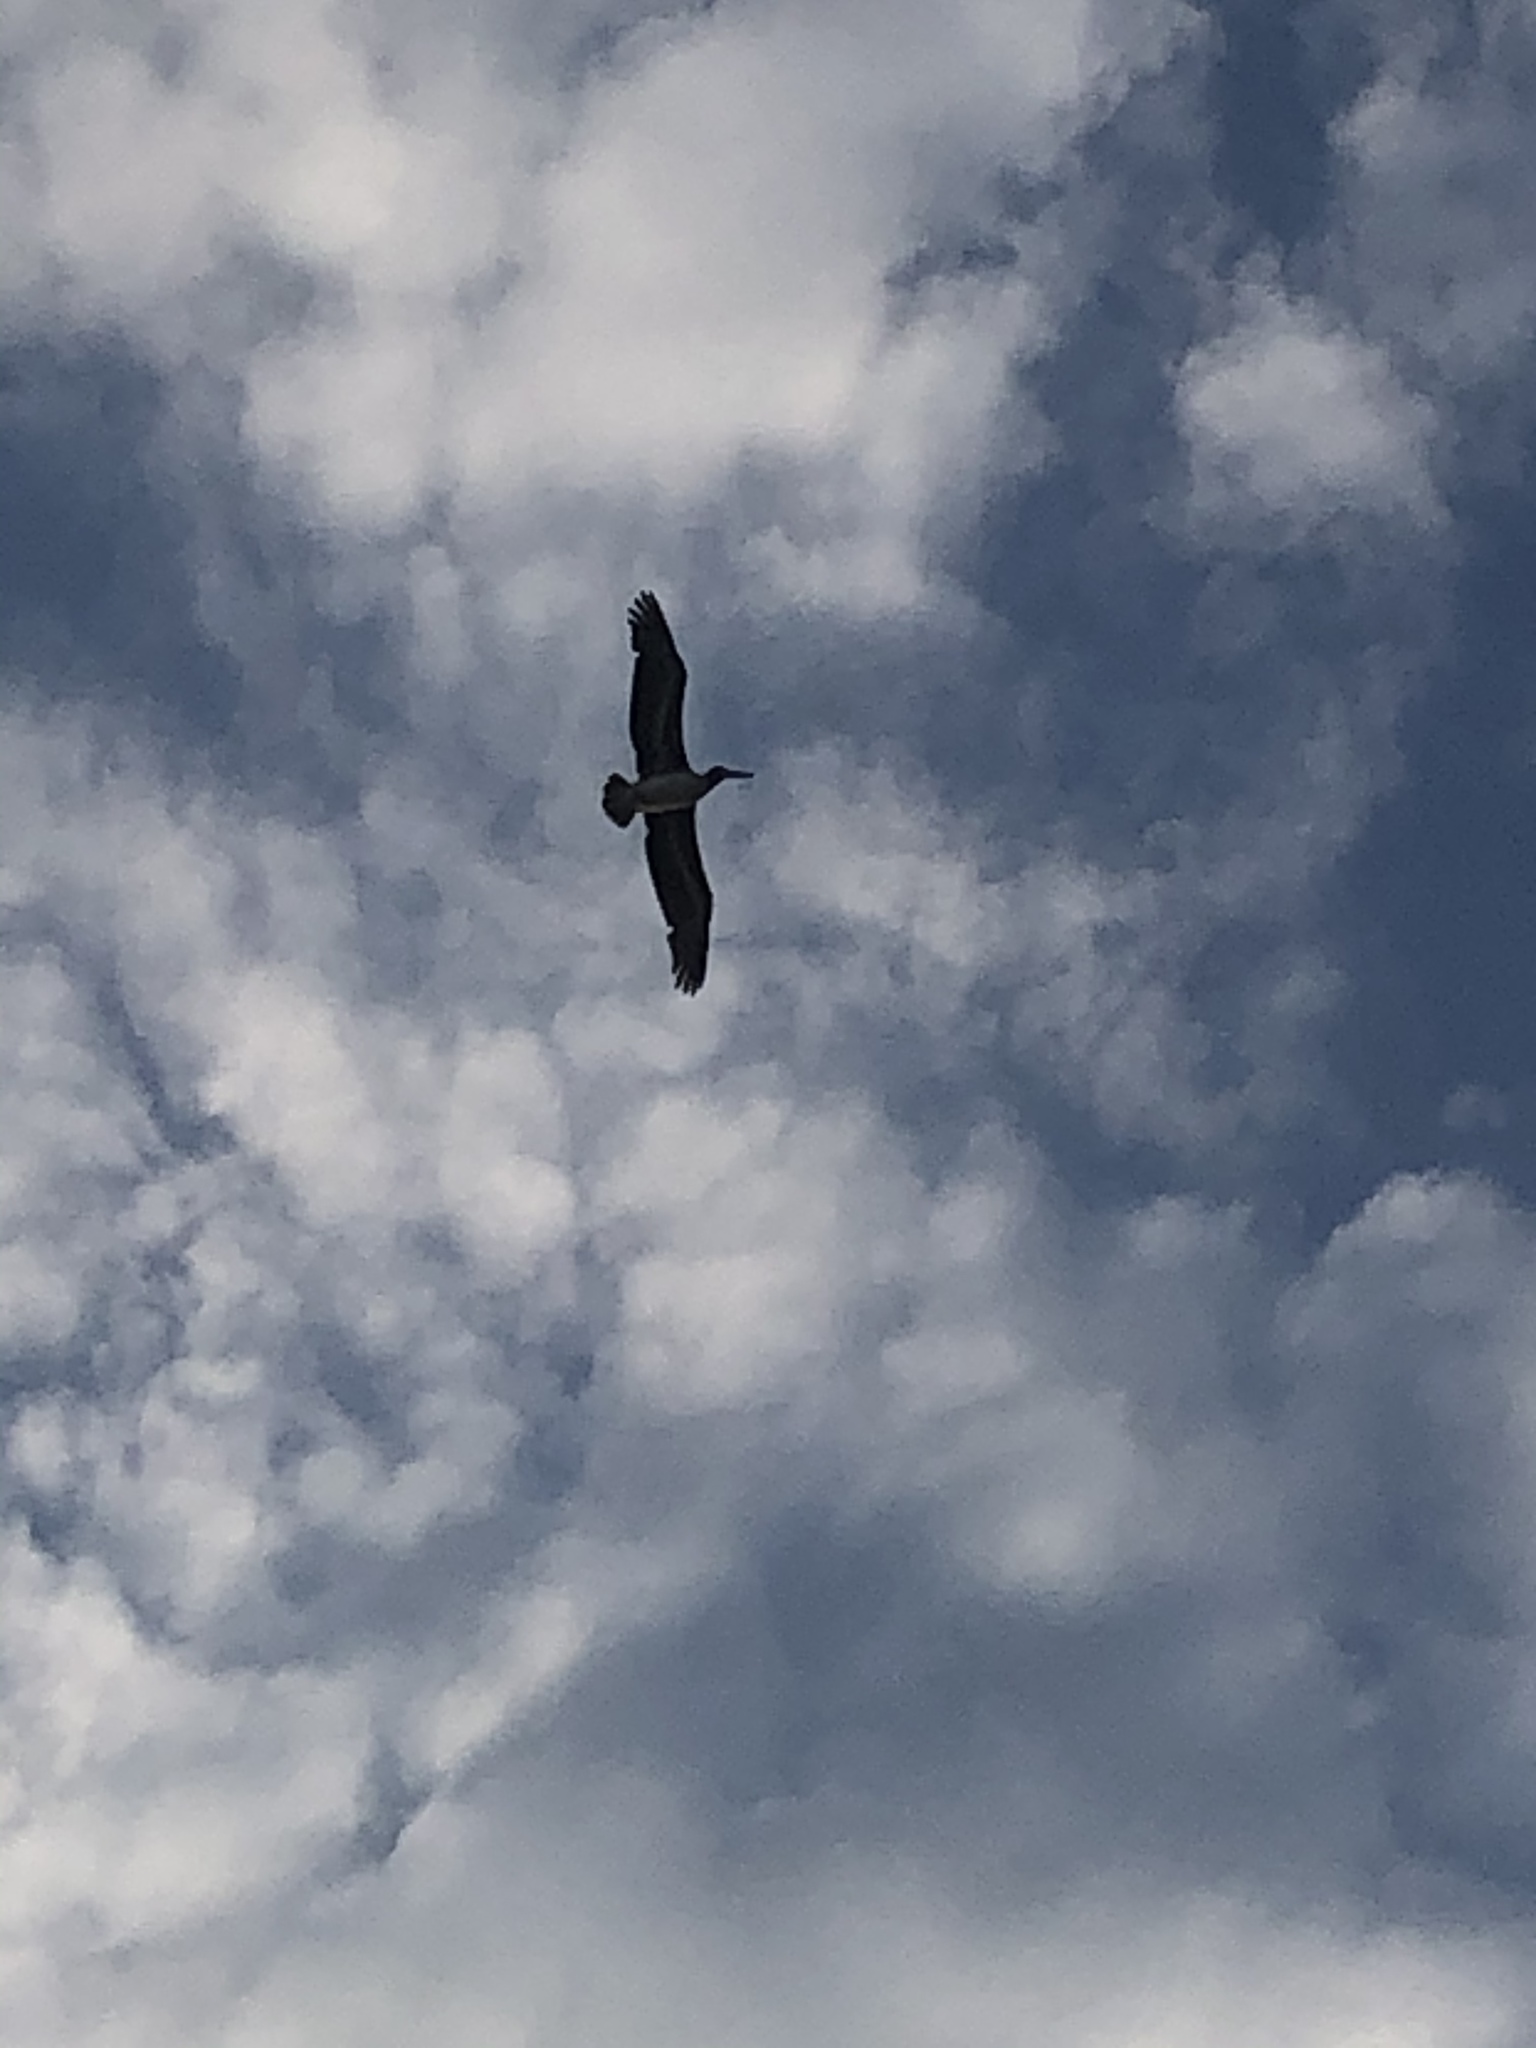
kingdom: Animalia
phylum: Chordata
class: Aves
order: Pelecaniformes
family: Pelecanidae
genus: Pelecanus
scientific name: Pelecanus occidentalis
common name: Brown pelican
